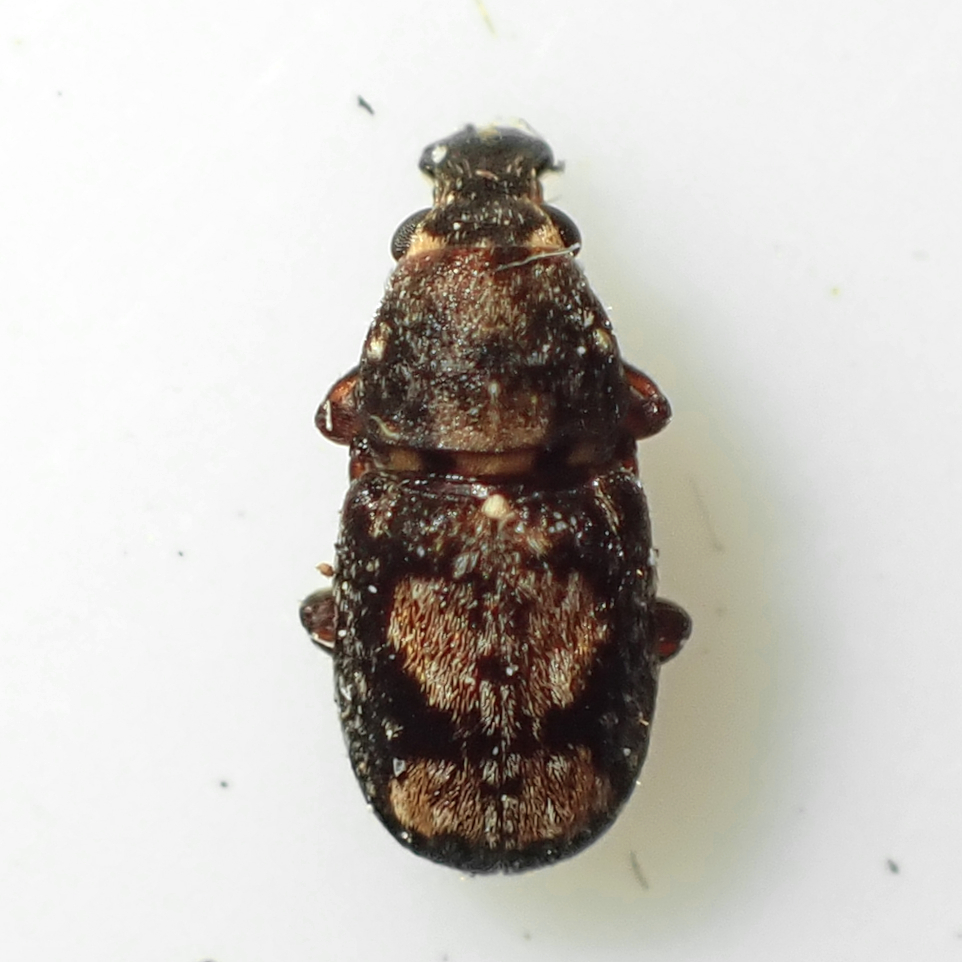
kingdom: Animalia
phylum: Arthropoda
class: Insecta
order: Coleoptera
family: Anthribidae
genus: Sharpius
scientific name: Sharpius
